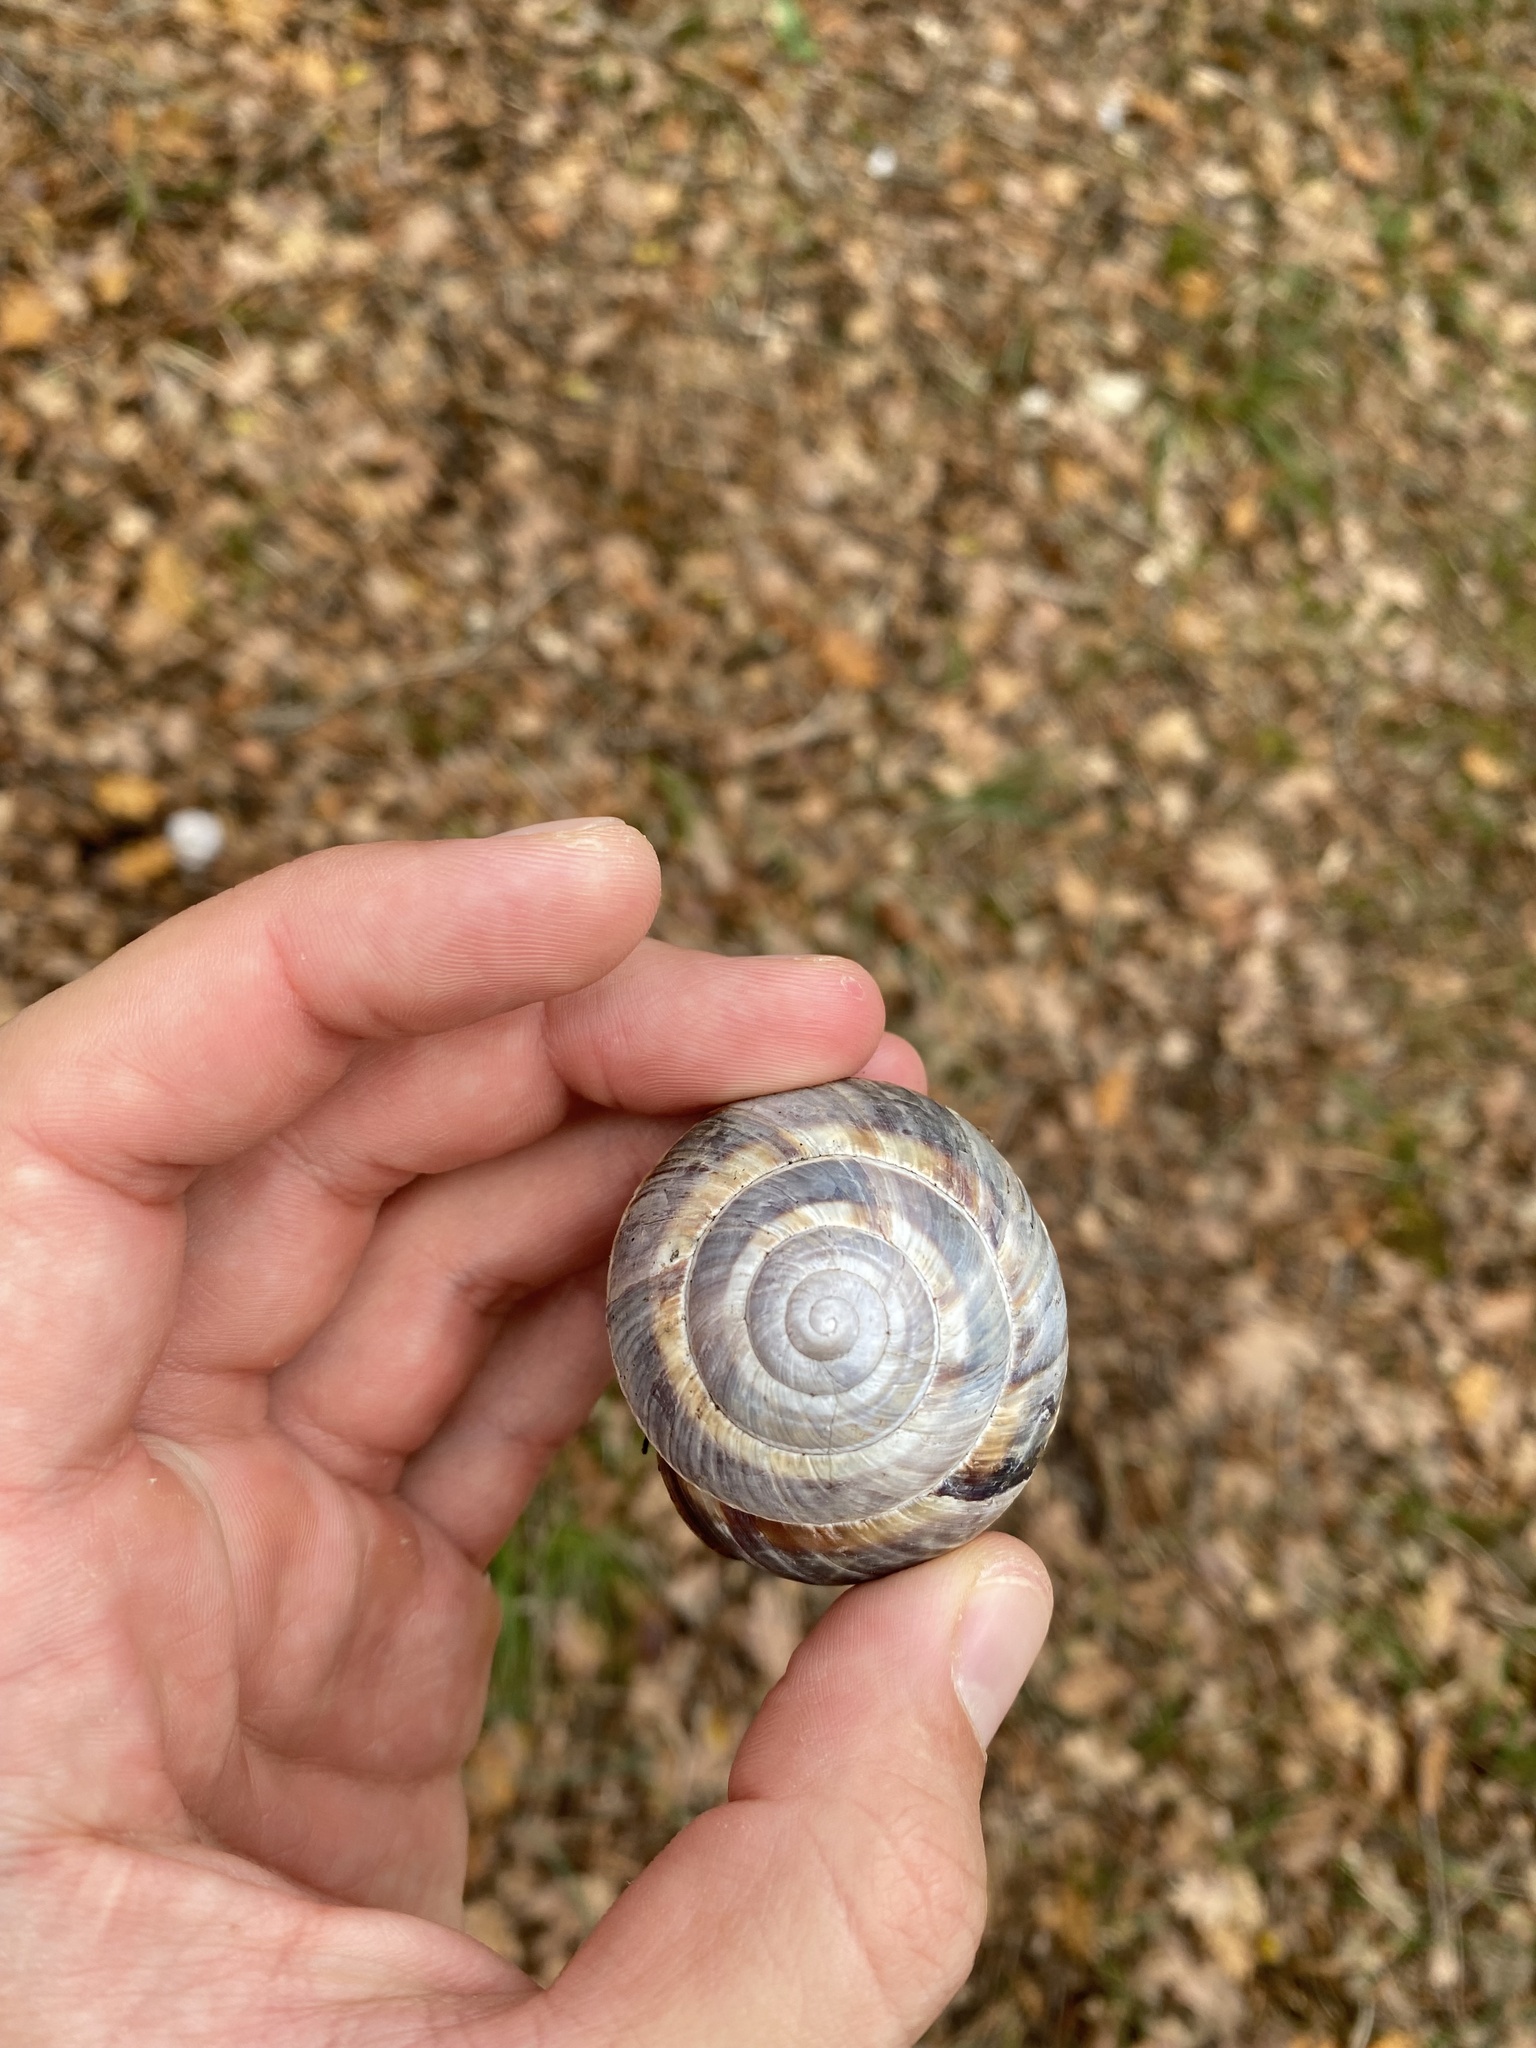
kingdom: Animalia
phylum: Mollusca
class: Gastropoda
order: Stylommatophora
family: Helicidae
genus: Helix
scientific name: Helix lucorum
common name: Turkish snail
